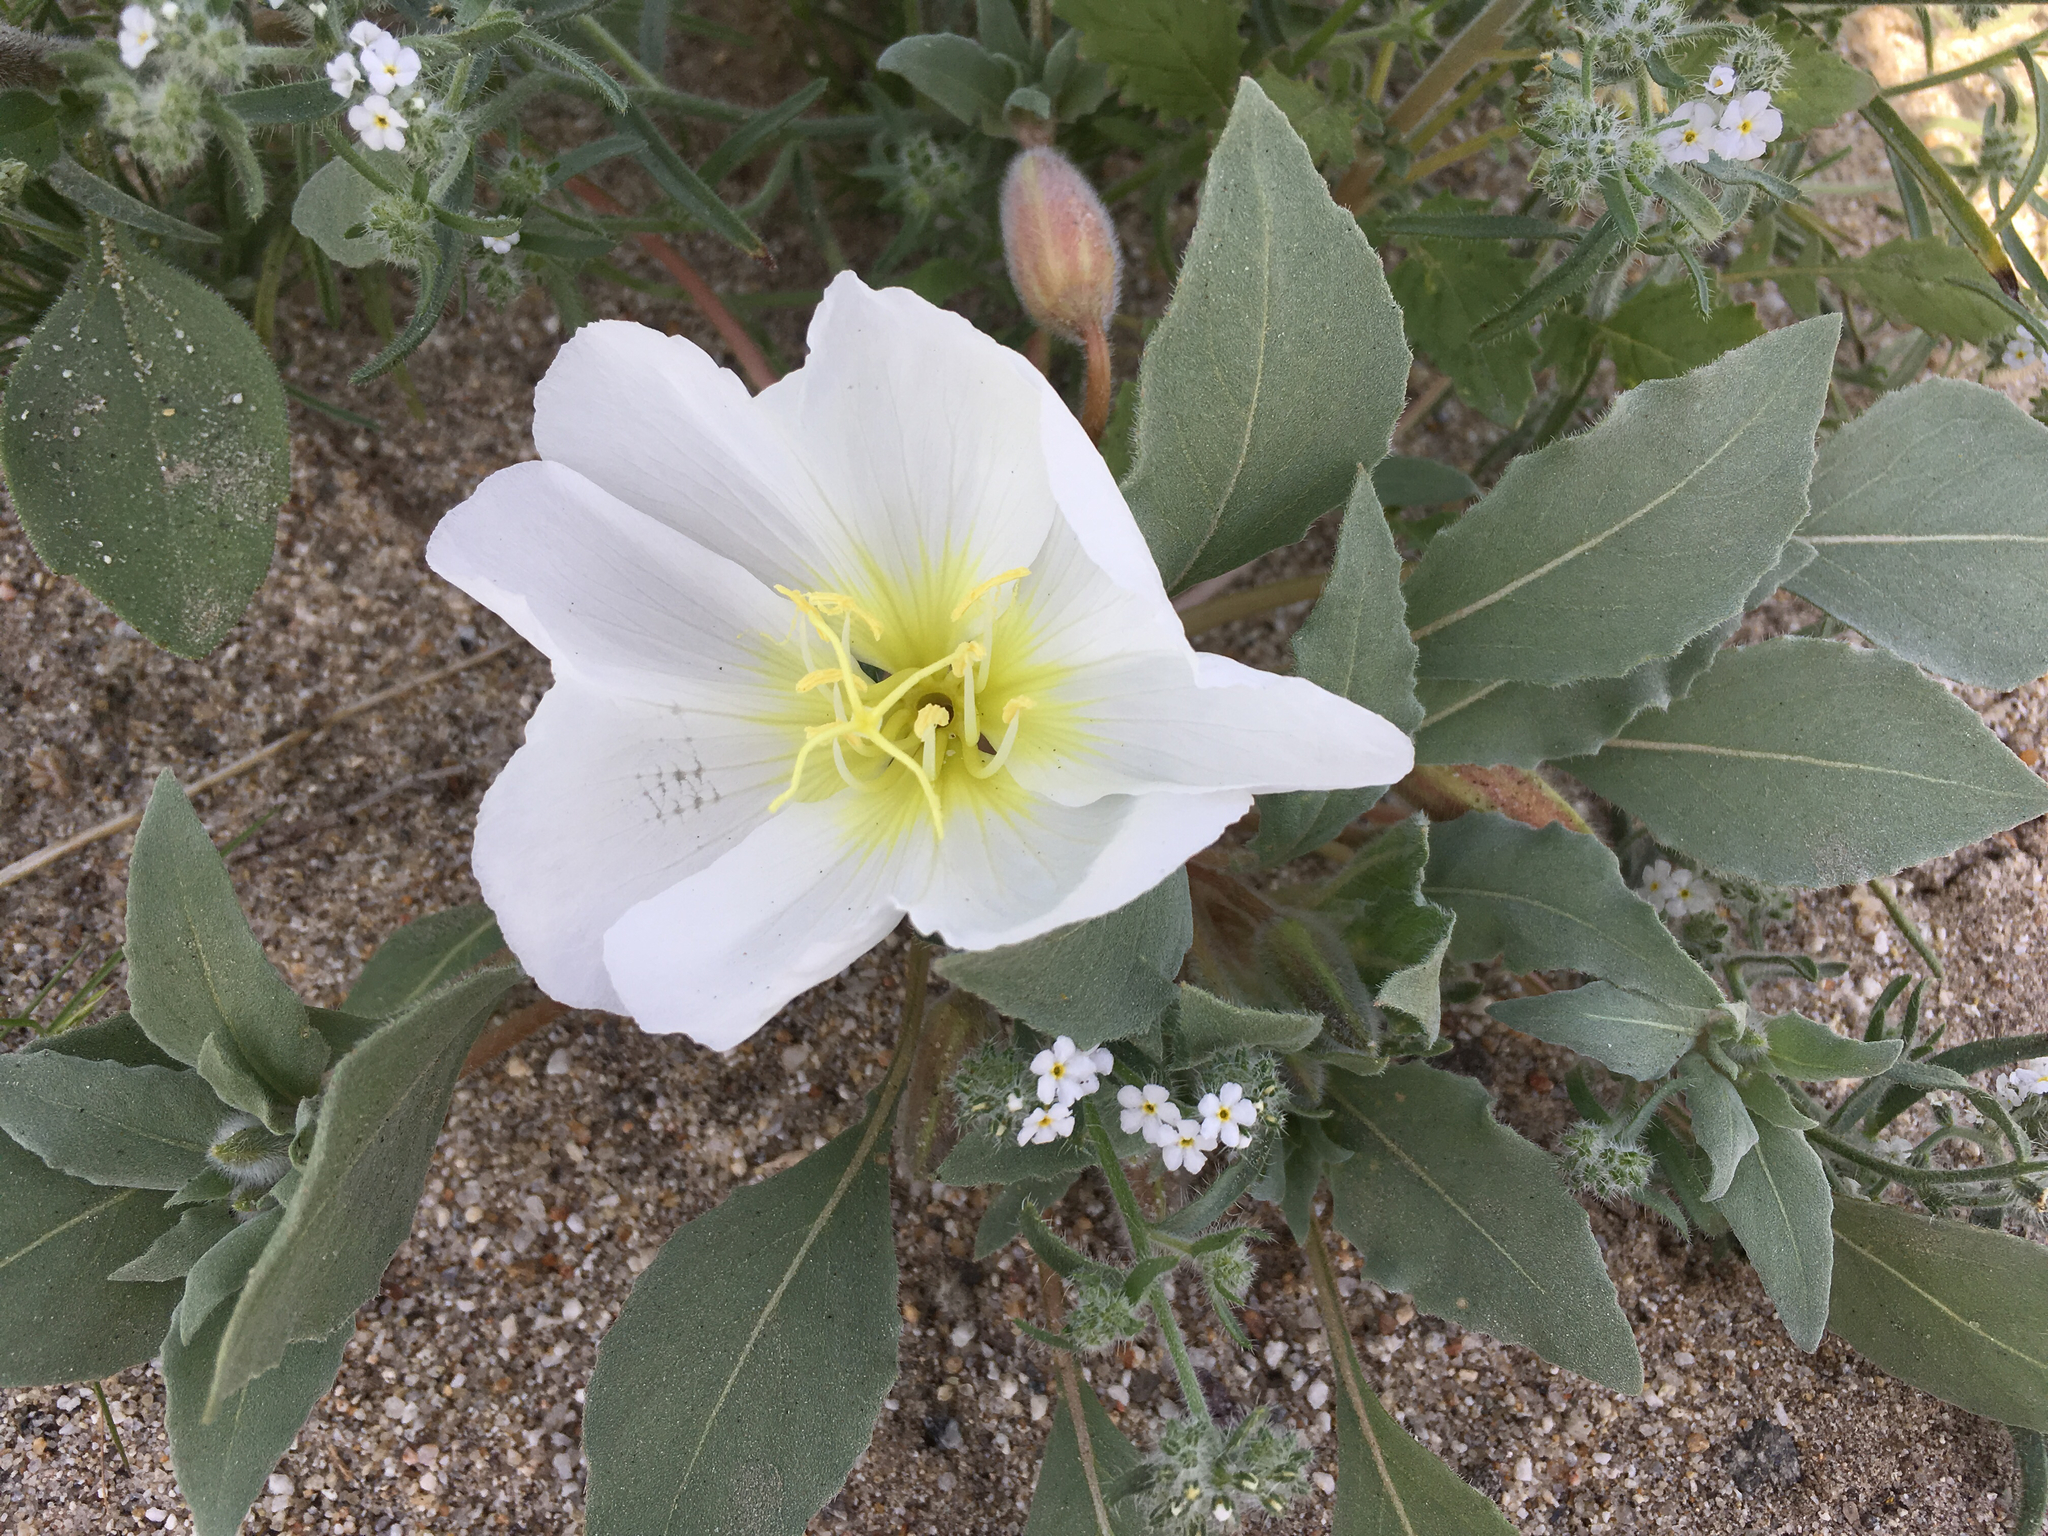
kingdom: Plantae
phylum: Tracheophyta
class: Magnoliopsida
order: Myrtales
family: Onagraceae
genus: Oenothera
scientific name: Oenothera deltoides
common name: Basket evening-primrose
